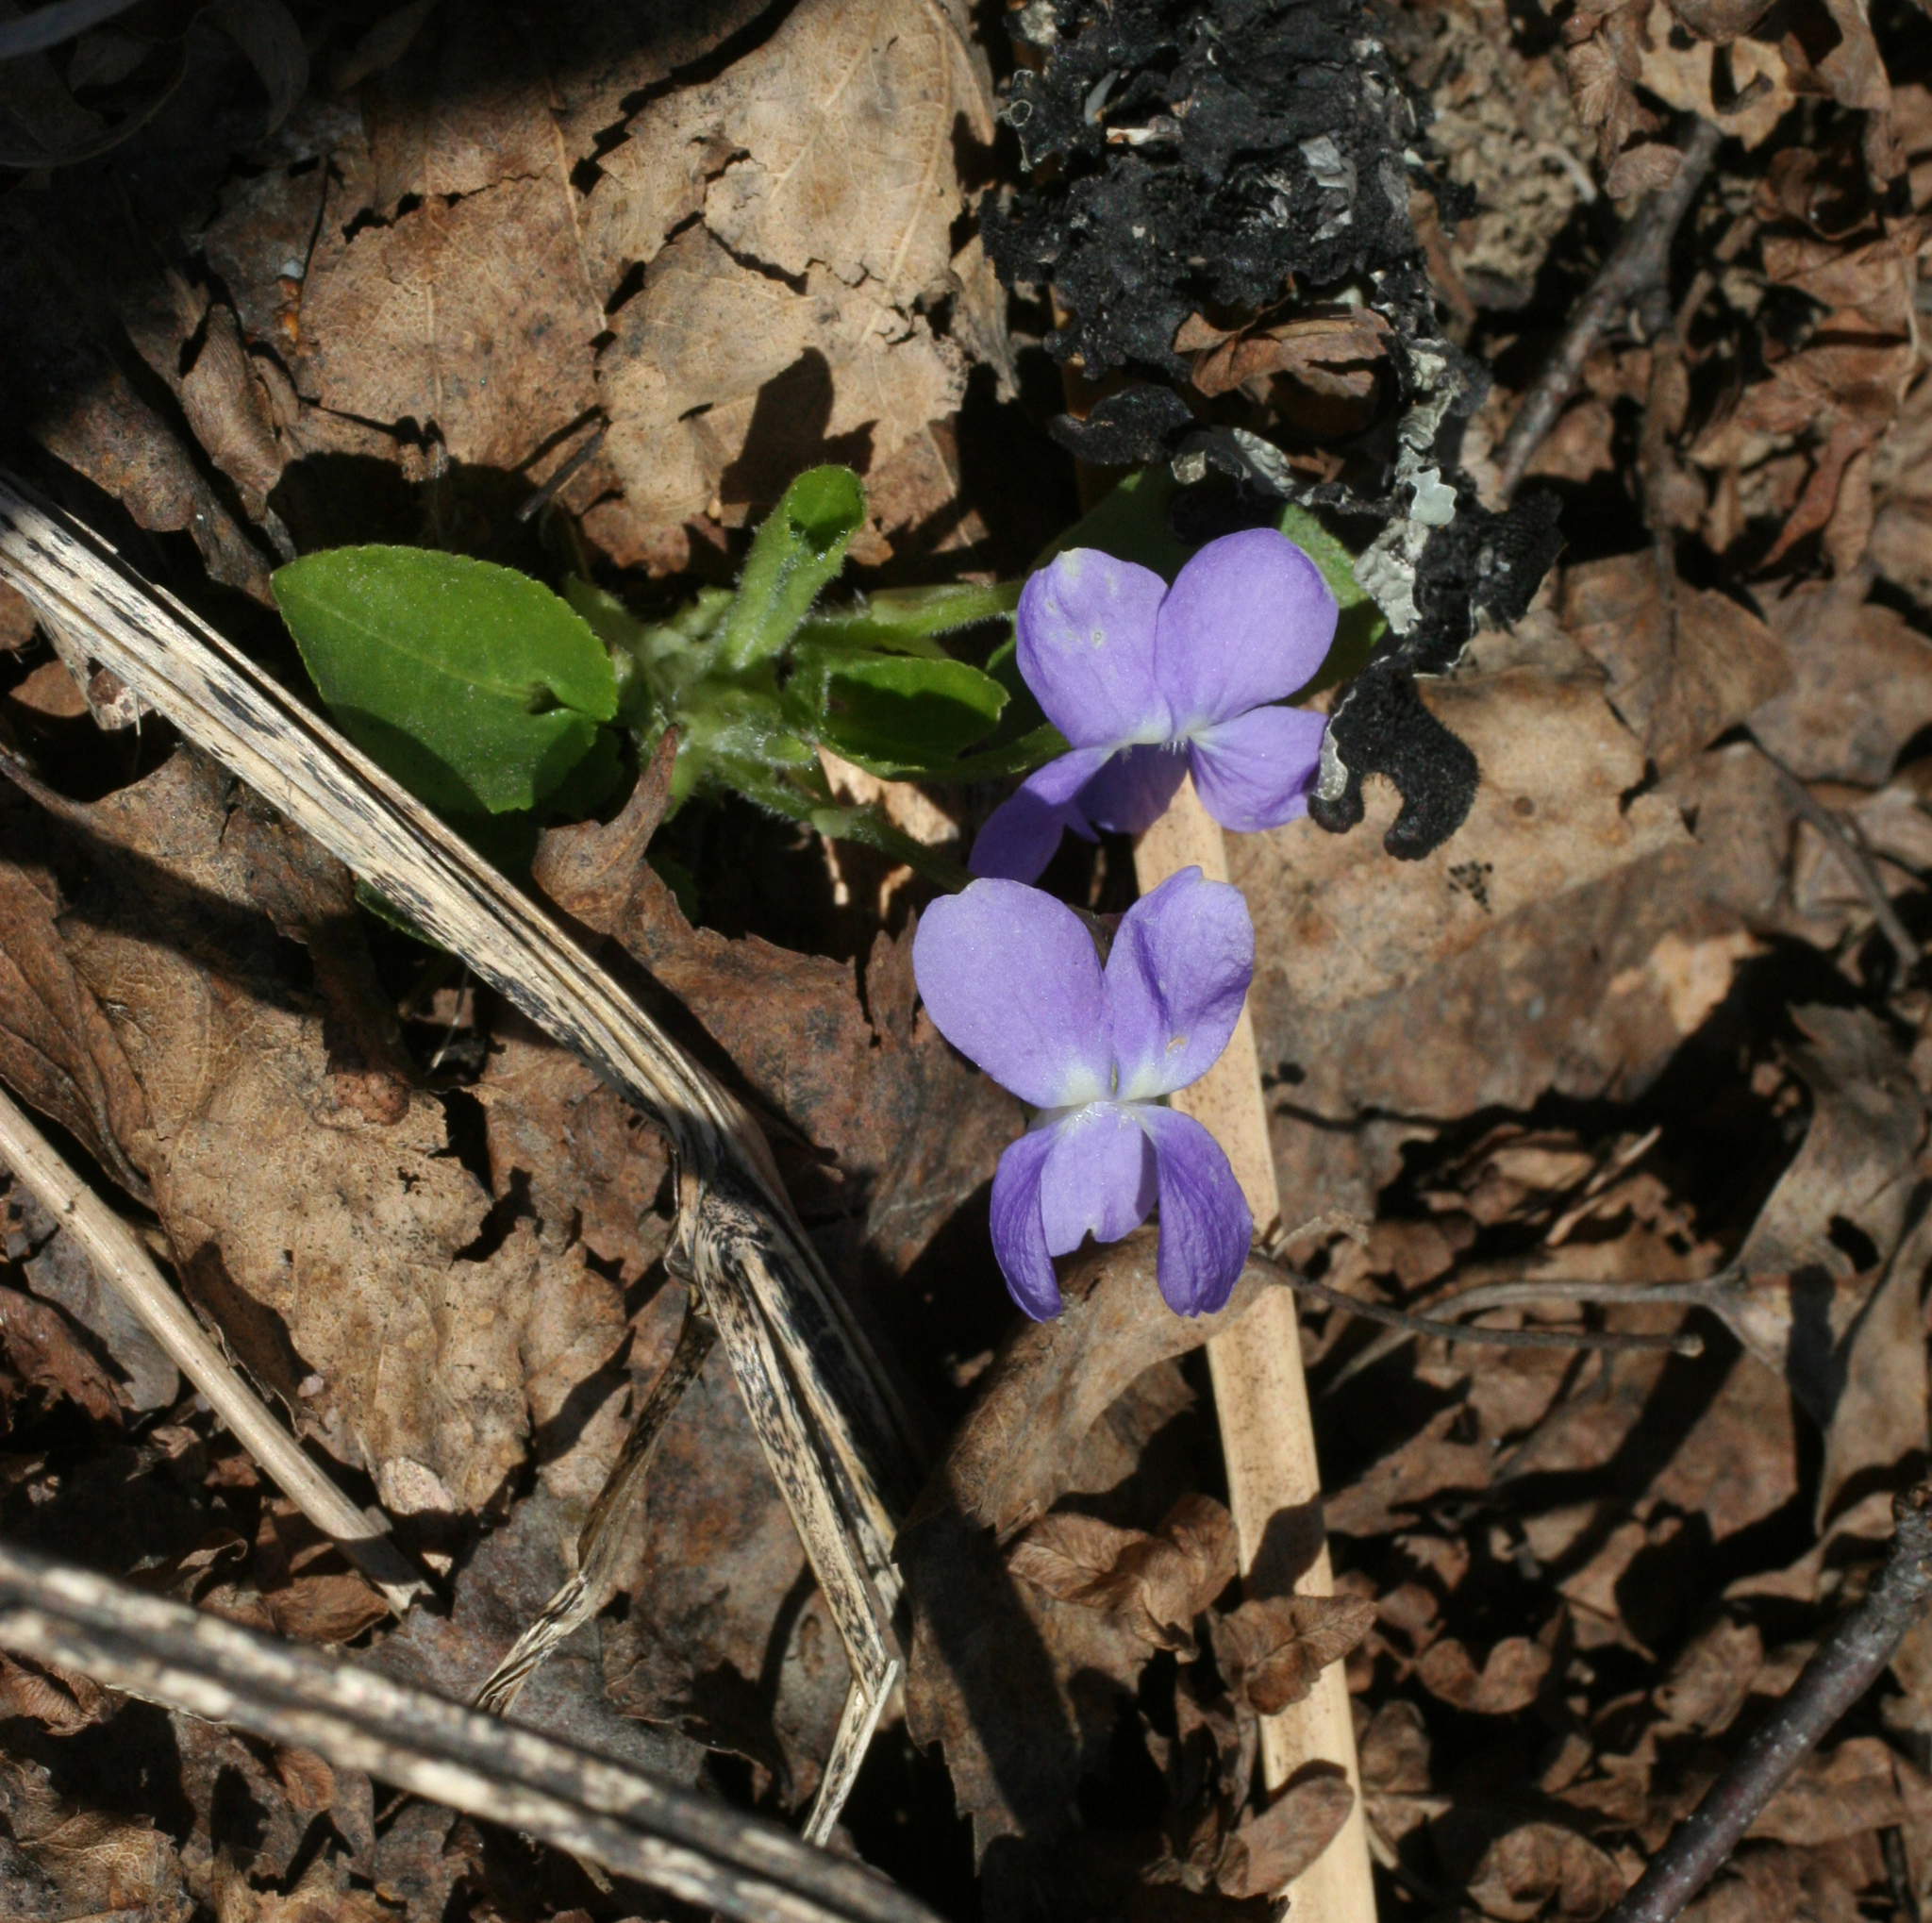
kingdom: Plantae
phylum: Tracheophyta
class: Magnoliopsida
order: Malpighiales
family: Violaceae
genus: Viola
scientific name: Viola hirta
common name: Hairy violet
